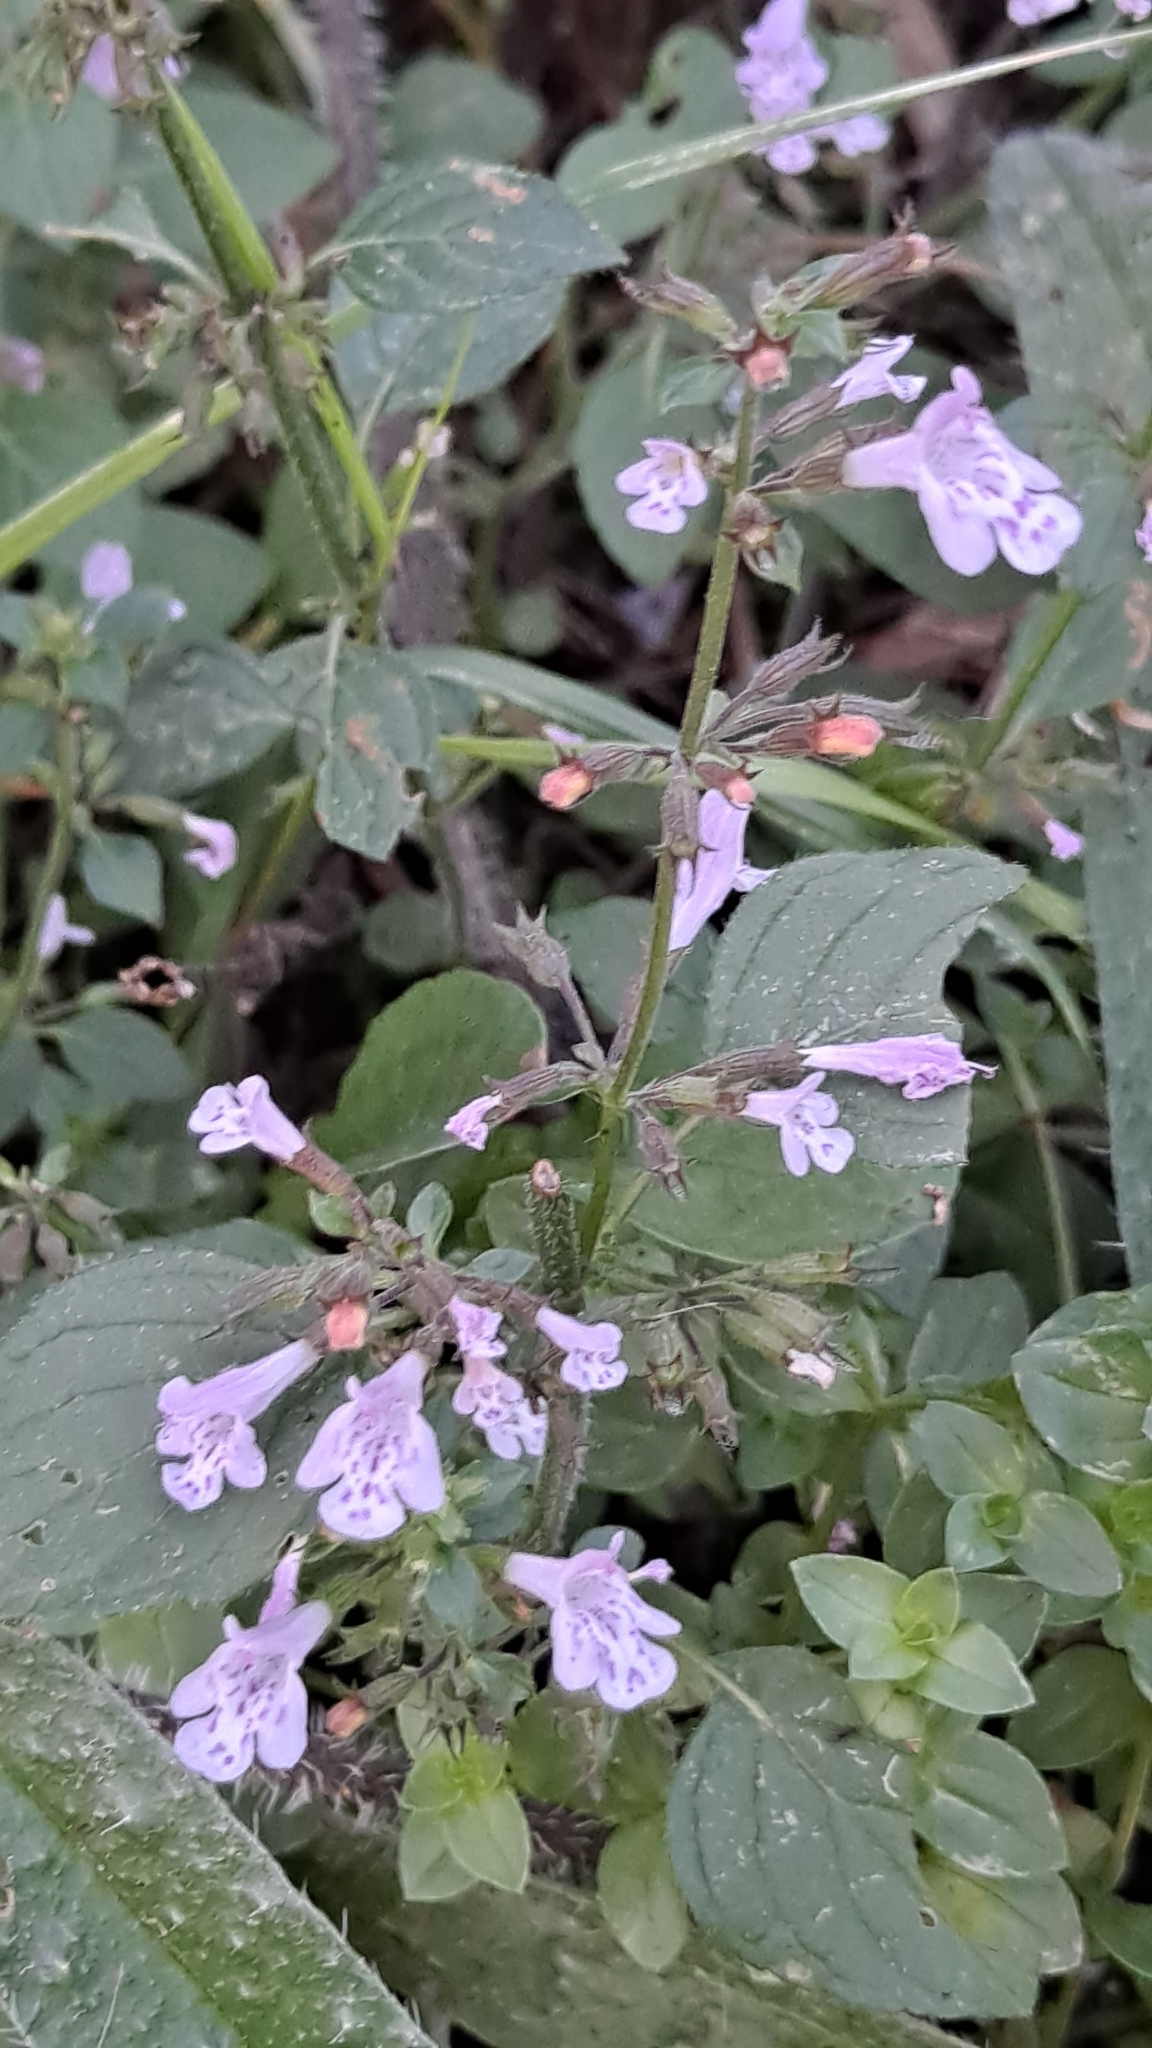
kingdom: Plantae
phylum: Tracheophyta
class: Magnoliopsida
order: Lamiales
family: Lamiaceae
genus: Clinopodium
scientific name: Clinopodium nepeta
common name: Lesser calamint
